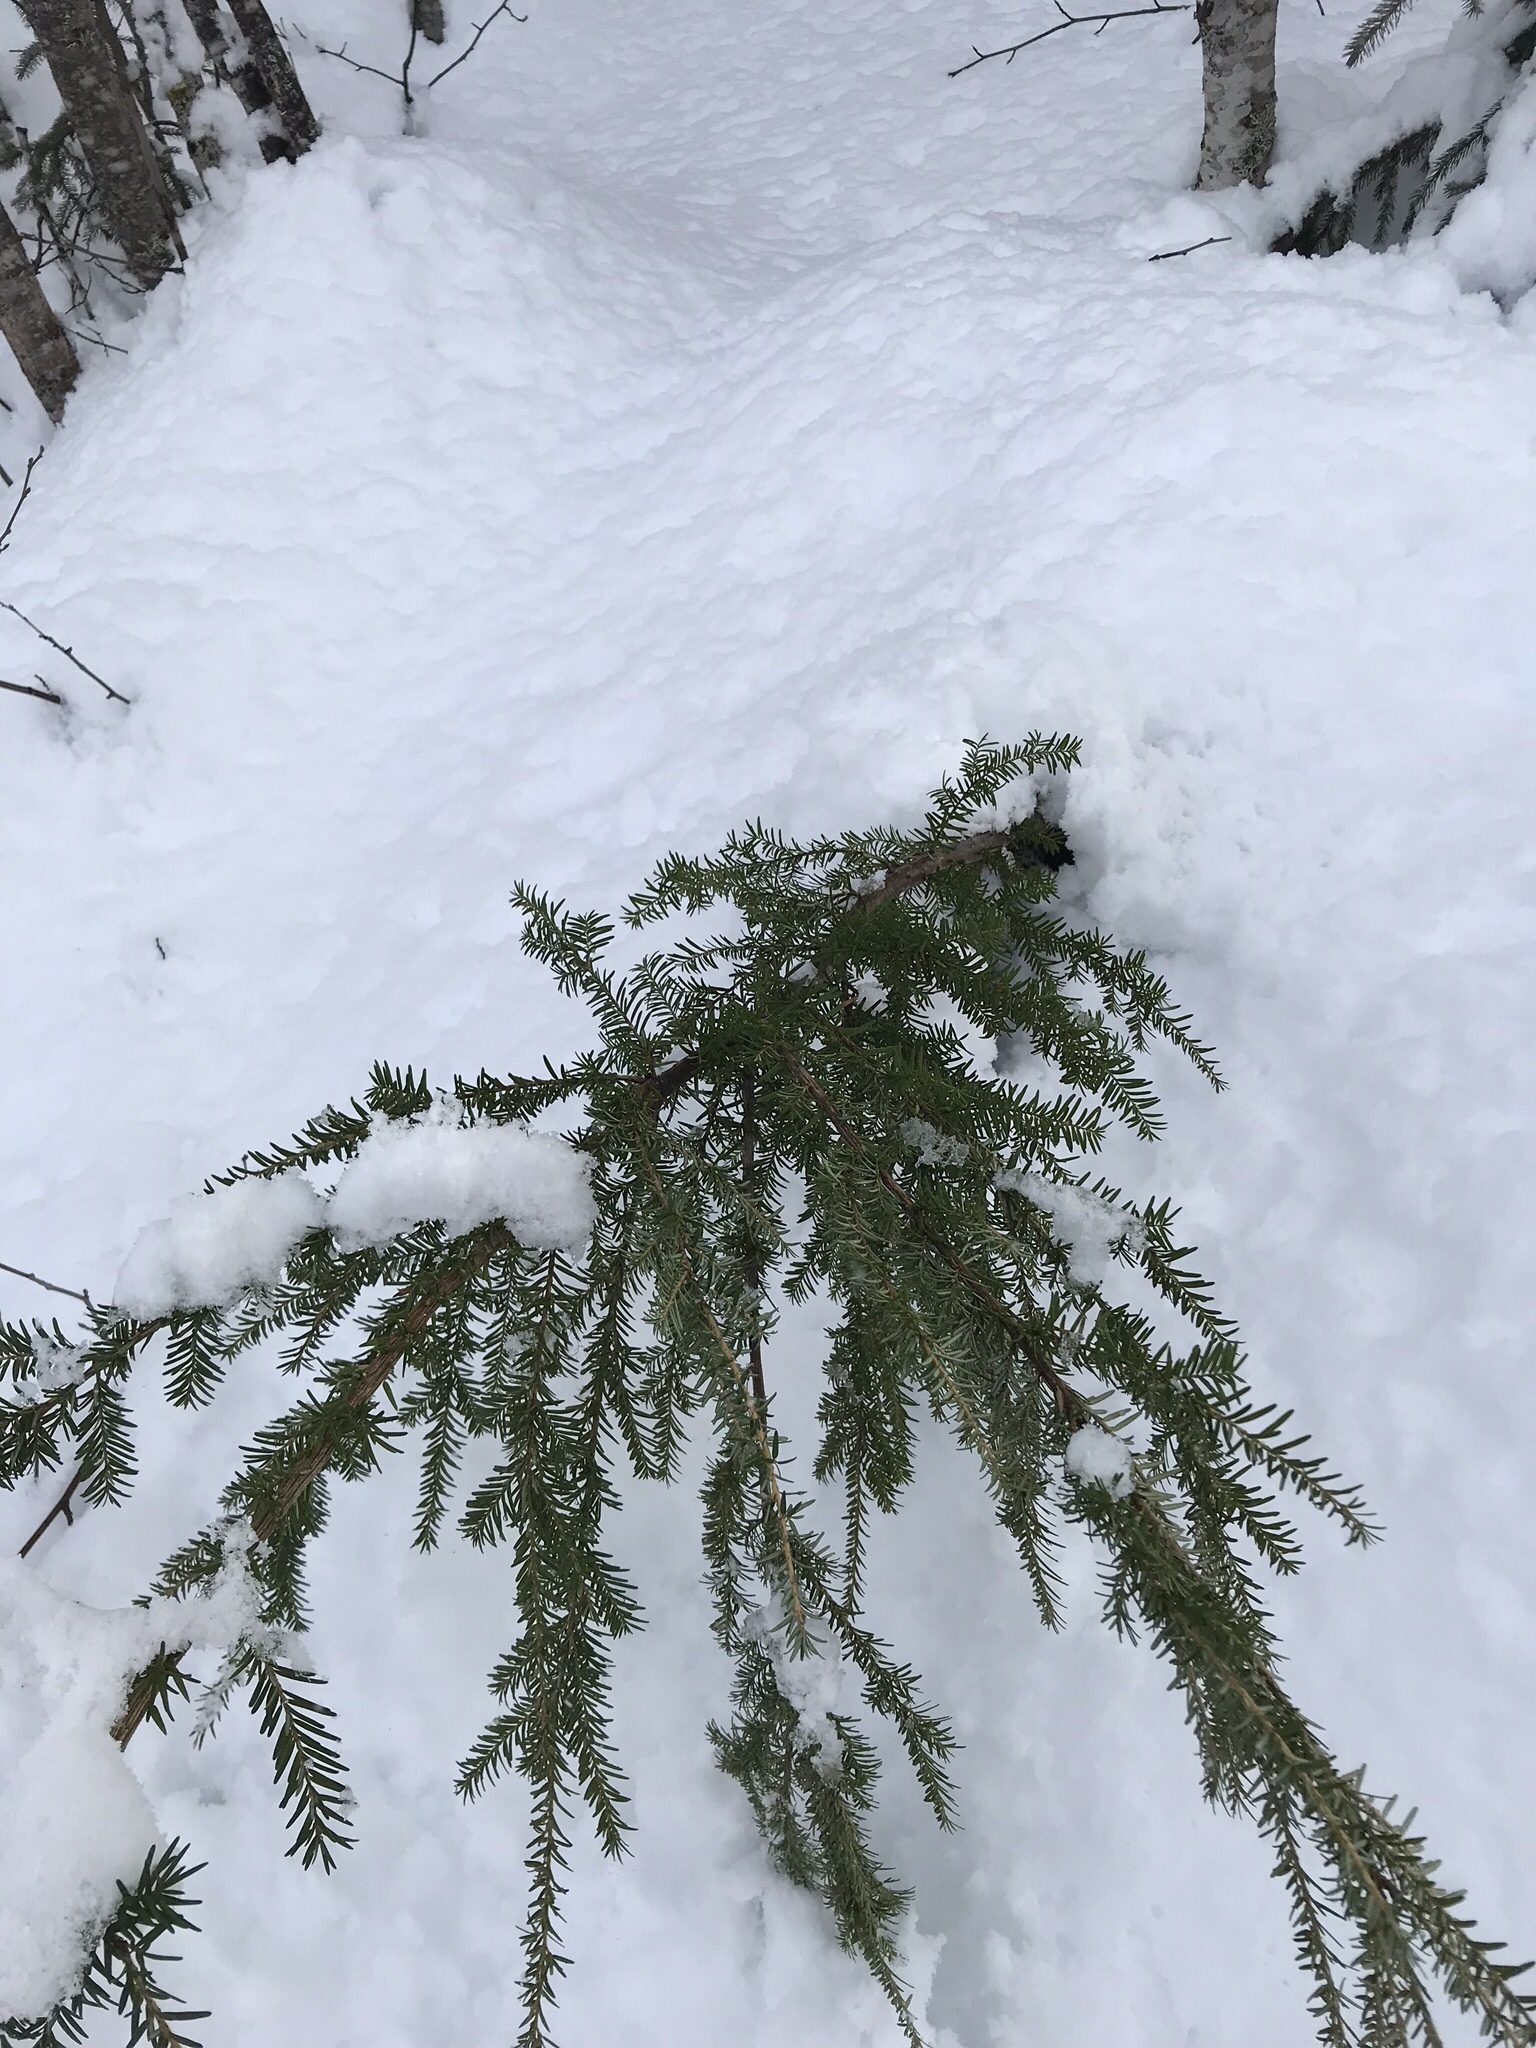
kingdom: Plantae
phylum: Tracheophyta
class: Pinopsida
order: Pinales
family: Pinaceae
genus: Tsuga
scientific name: Tsuga heterophylla
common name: Western hemlock
